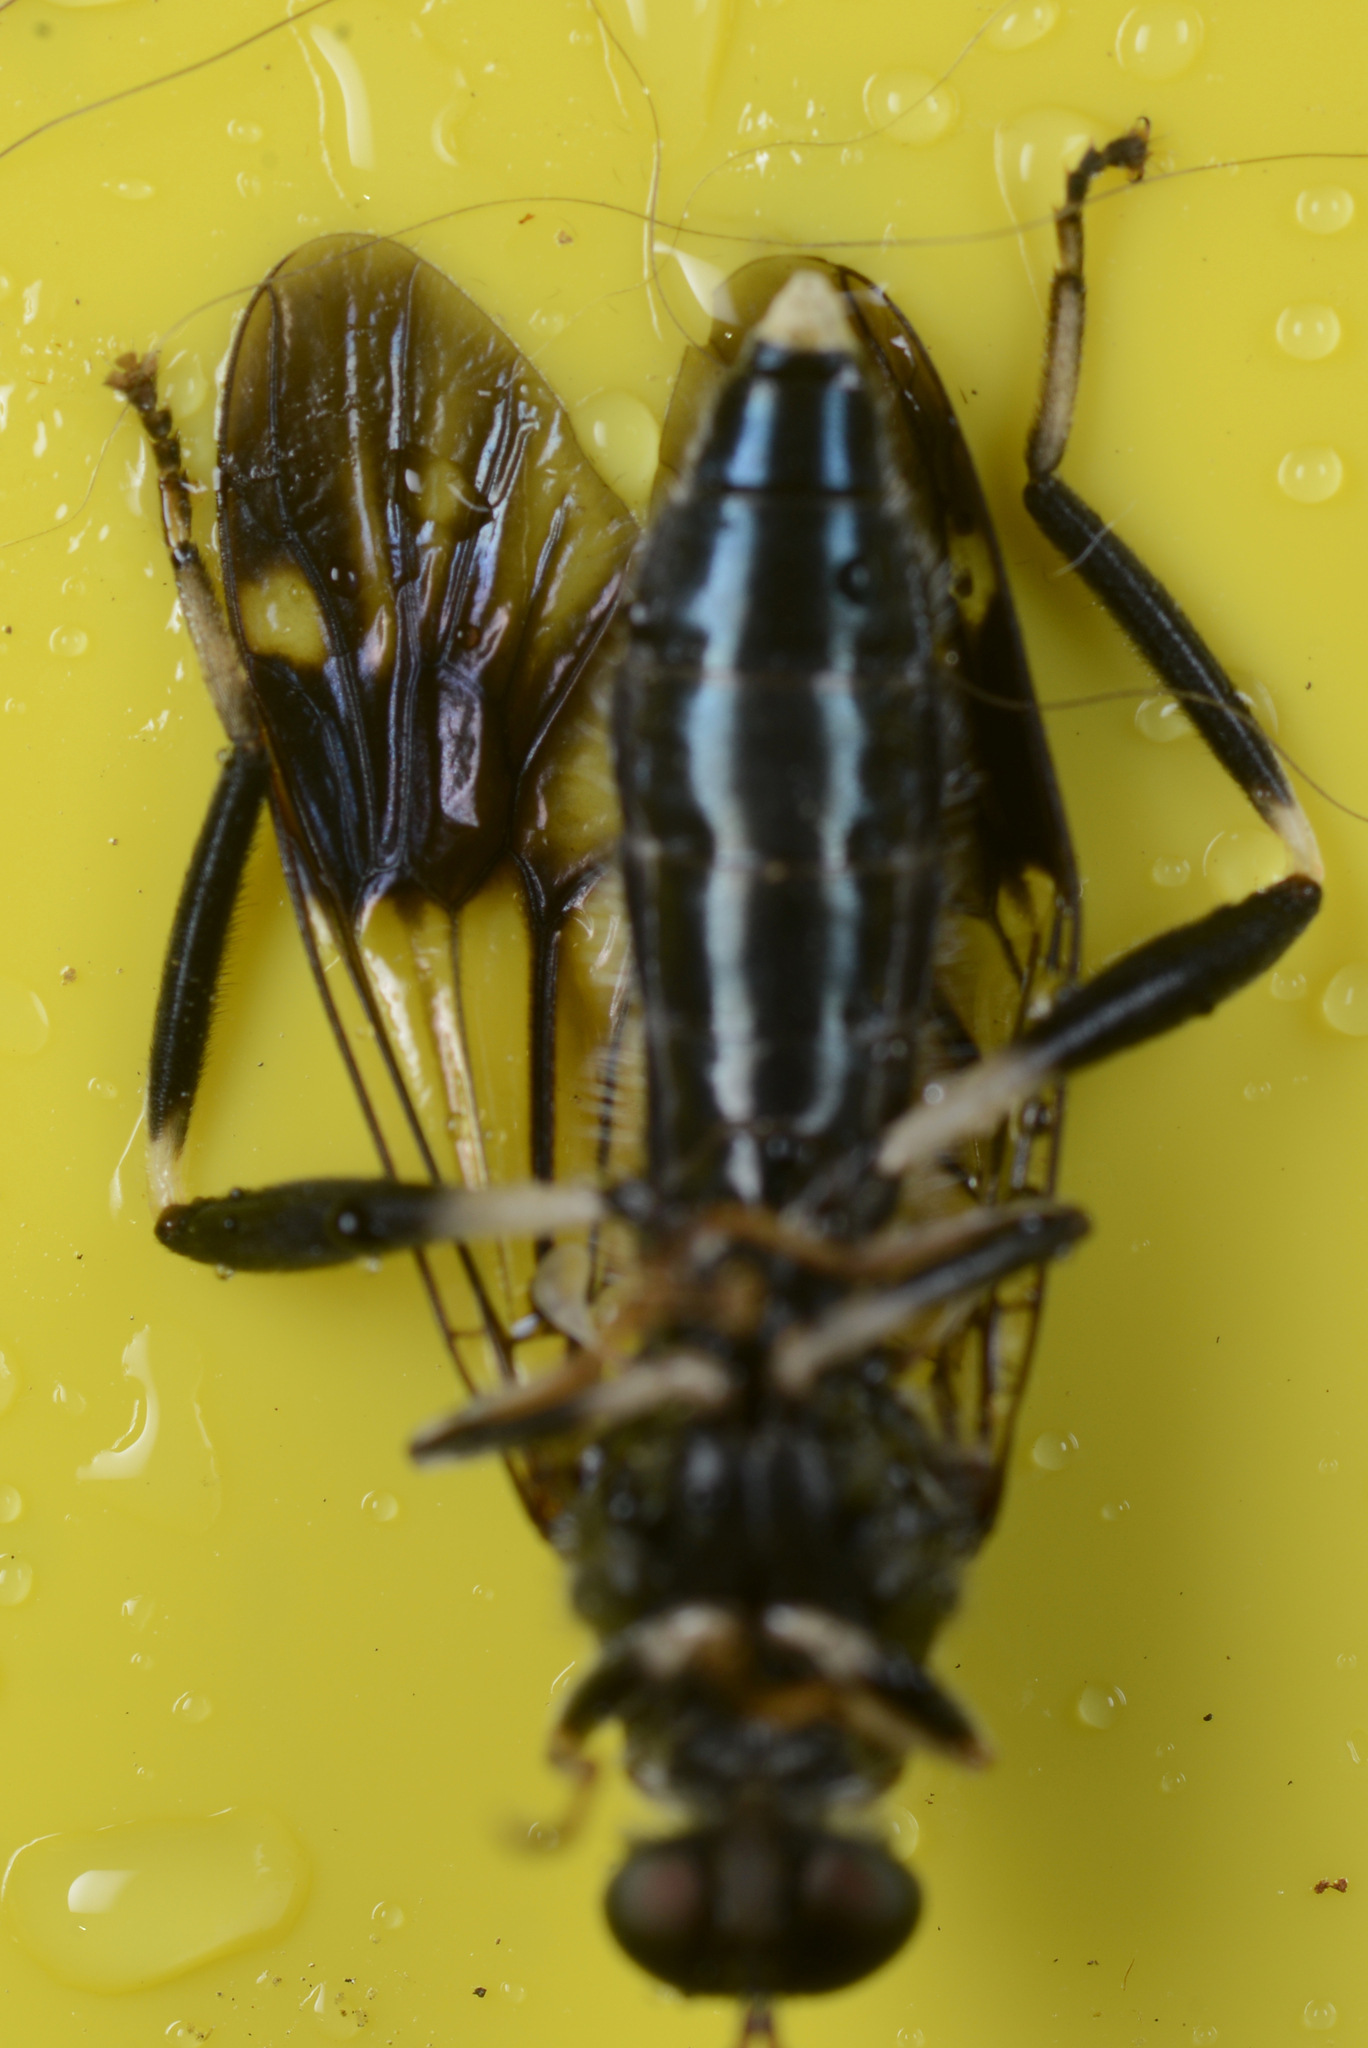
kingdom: Animalia
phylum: Arthropoda
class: Insecta
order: Diptera
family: Stratiomyidae
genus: Exaireta
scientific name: Exaireta spinigera
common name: Blue soldier fly
